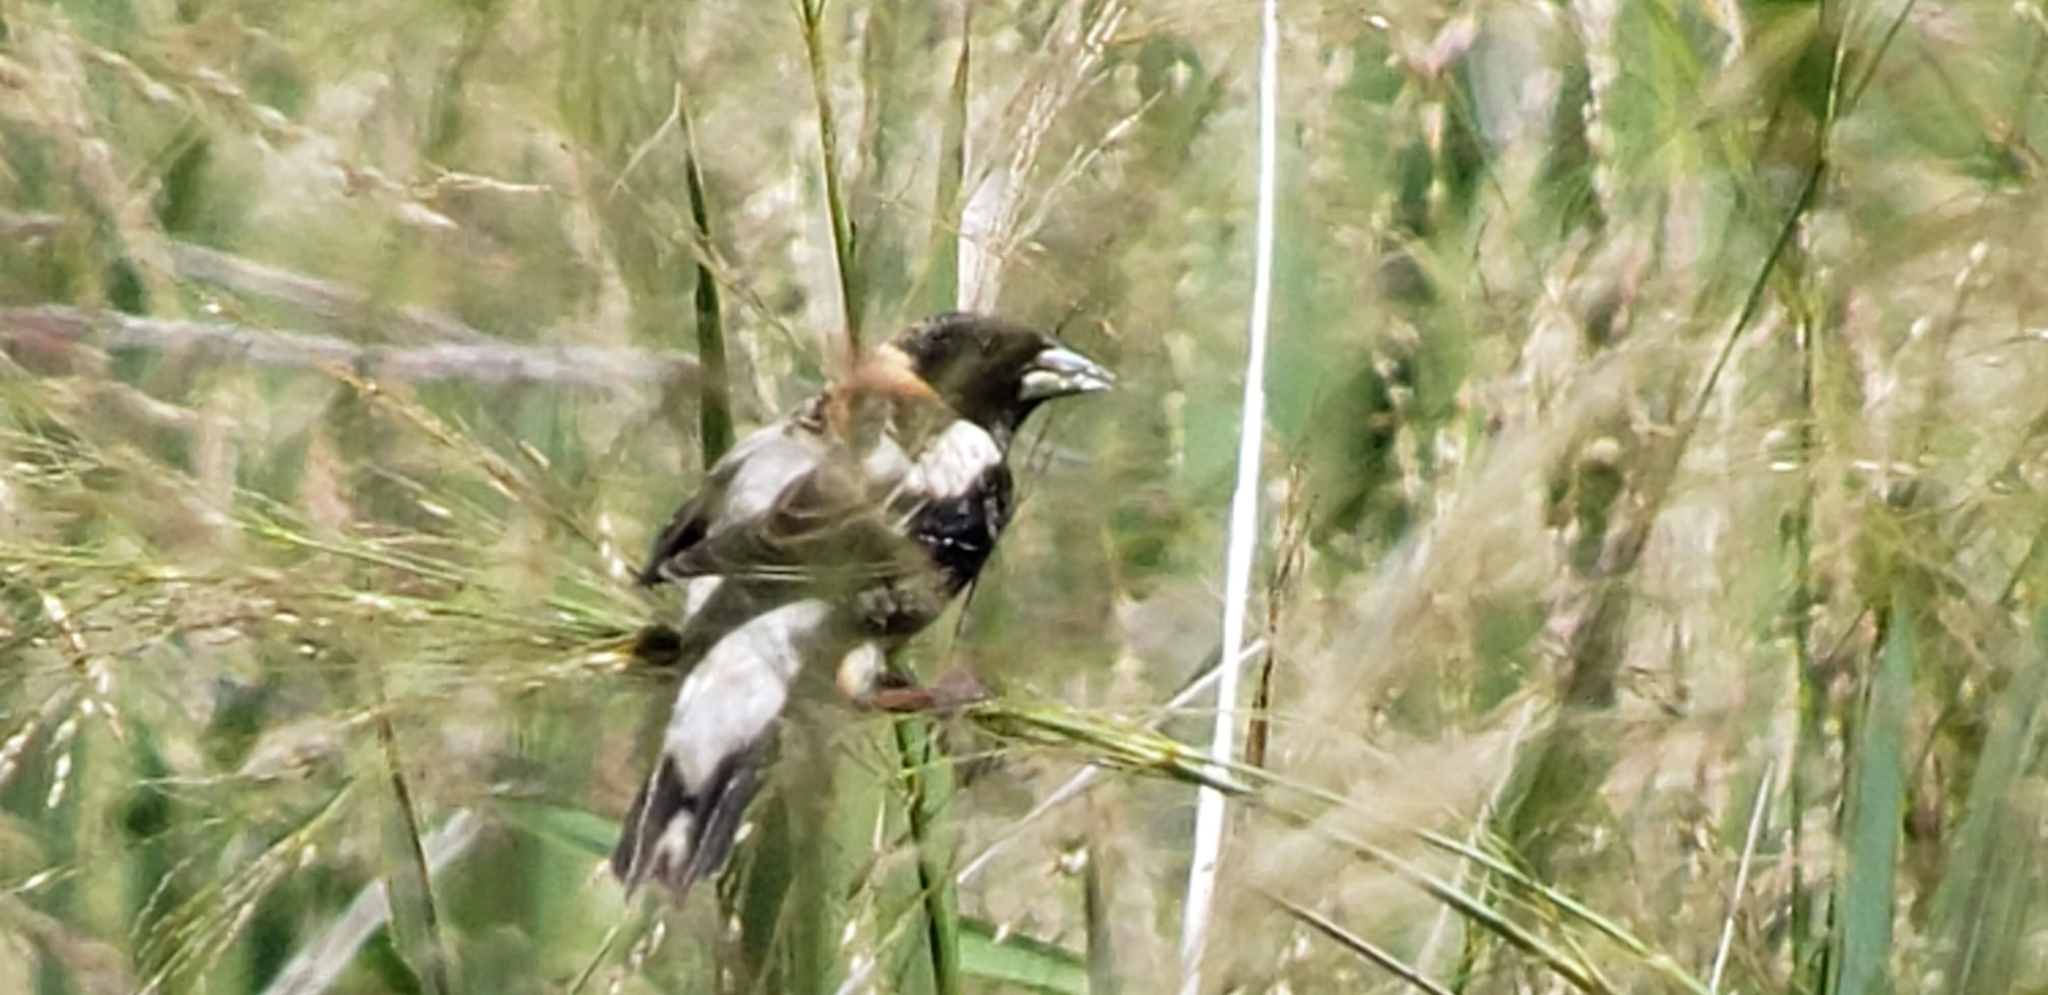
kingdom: Animalia
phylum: Chordata
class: Aves
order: Passeriformes
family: Icteridae
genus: Dolichonyx
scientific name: Dolichonyx oryzivorus
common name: Bobolink
